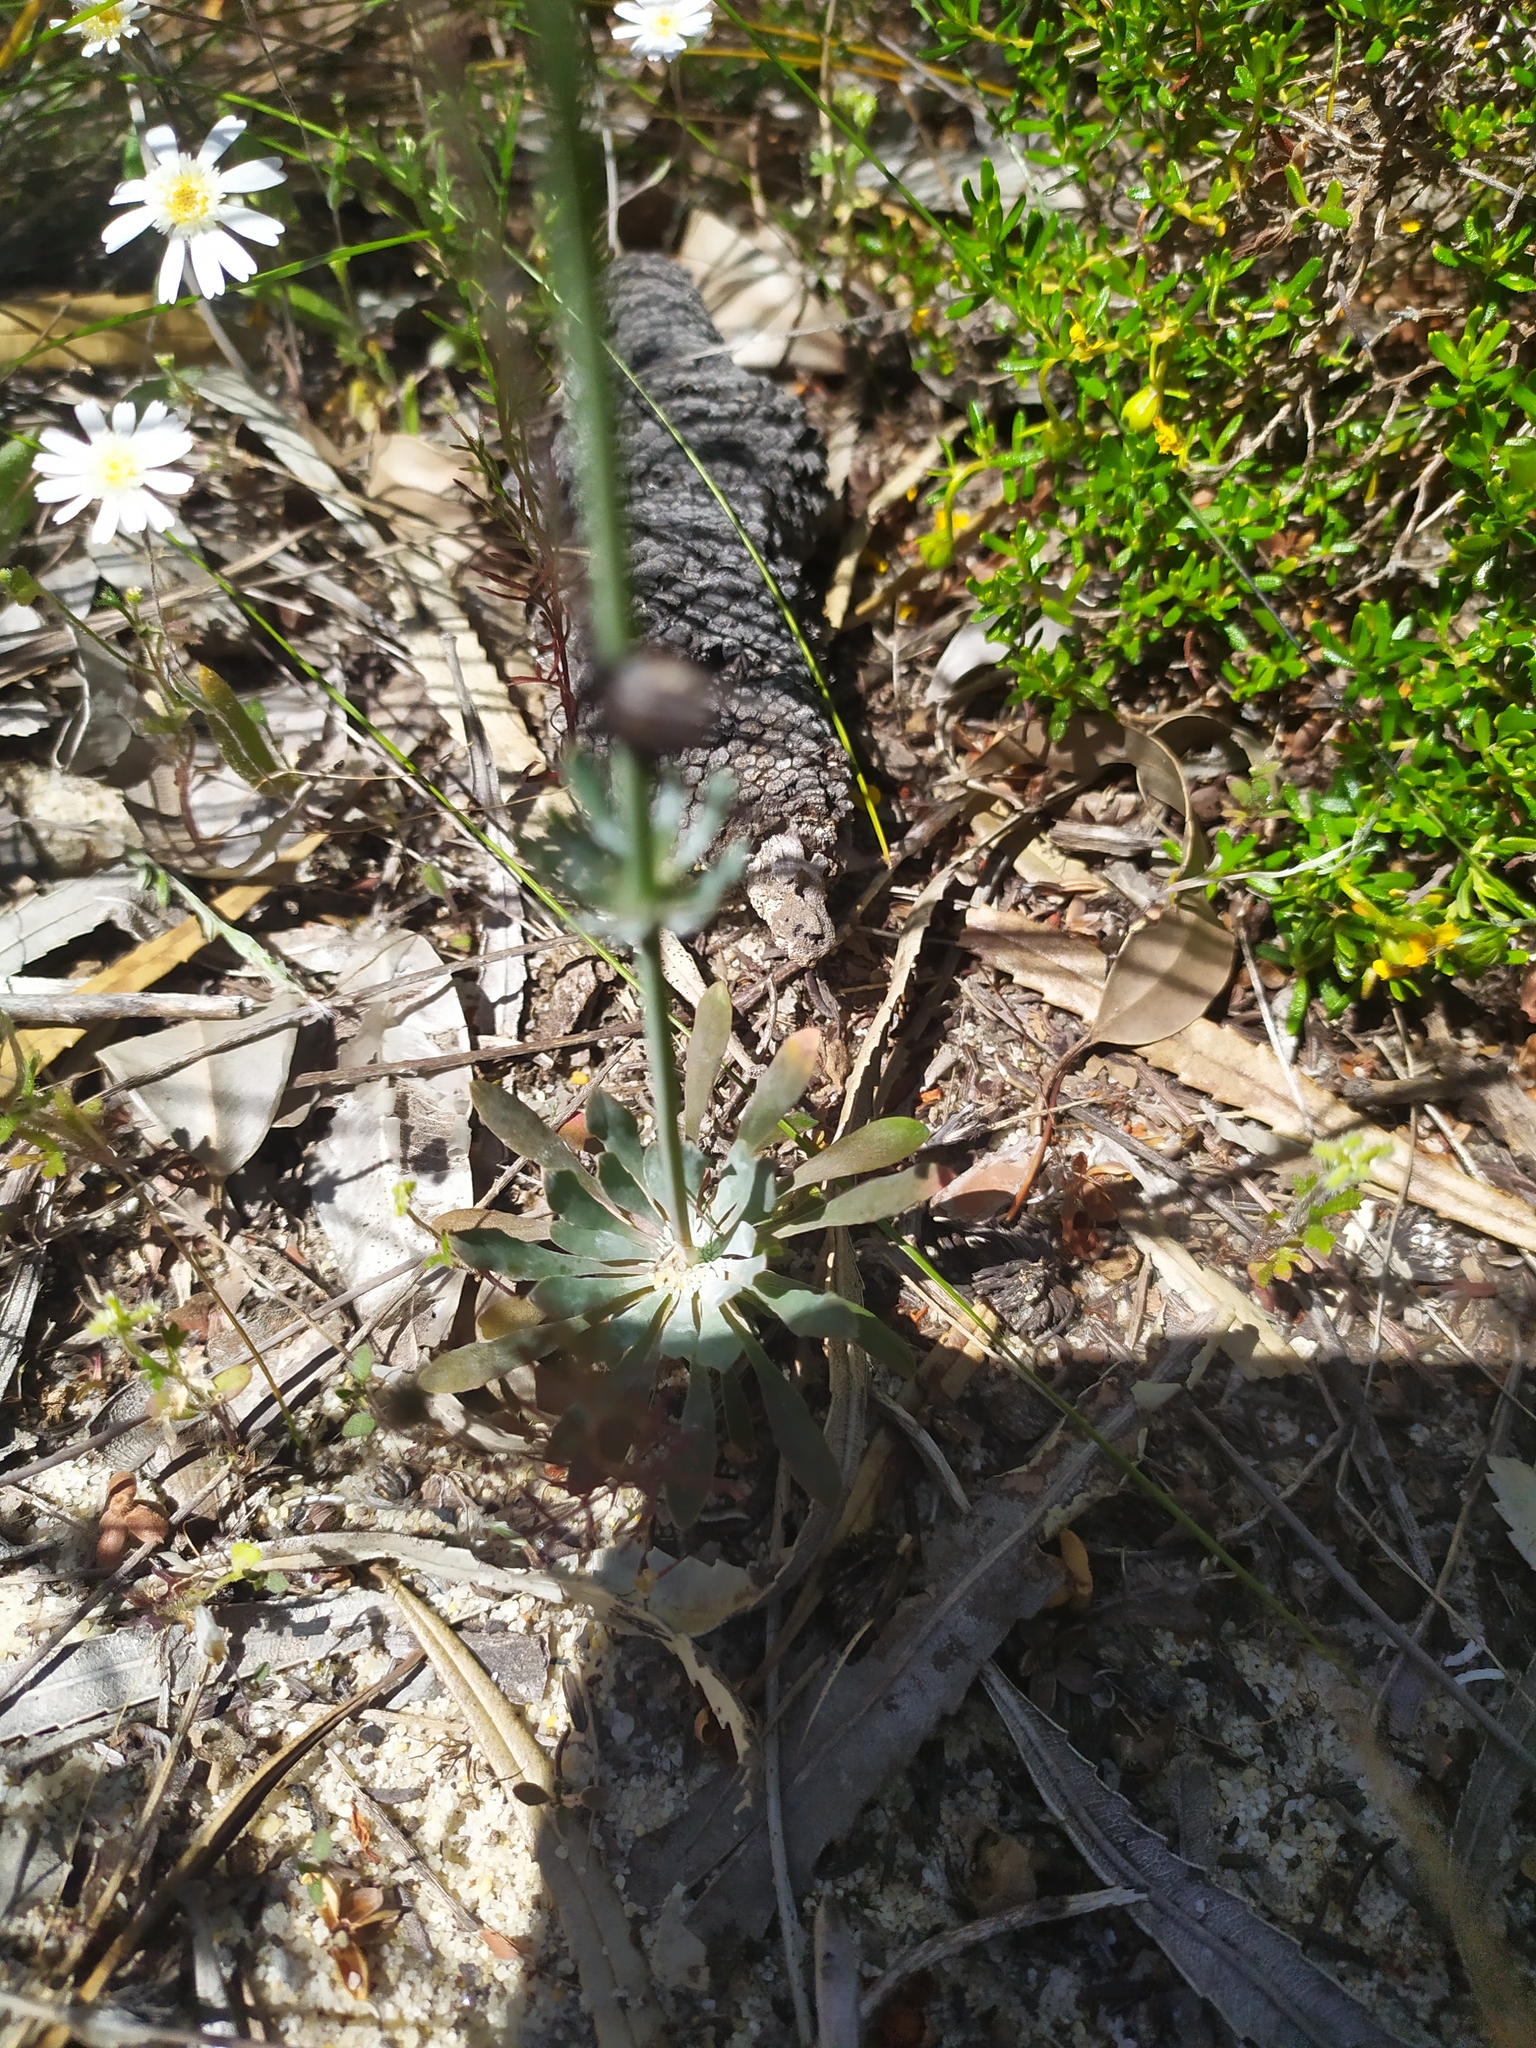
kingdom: Plantae
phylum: Tracheophyta
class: Magnoliopsida
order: Asterales
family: Stylidiaceae
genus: Stylidium
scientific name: Stylidium neurophyllum
